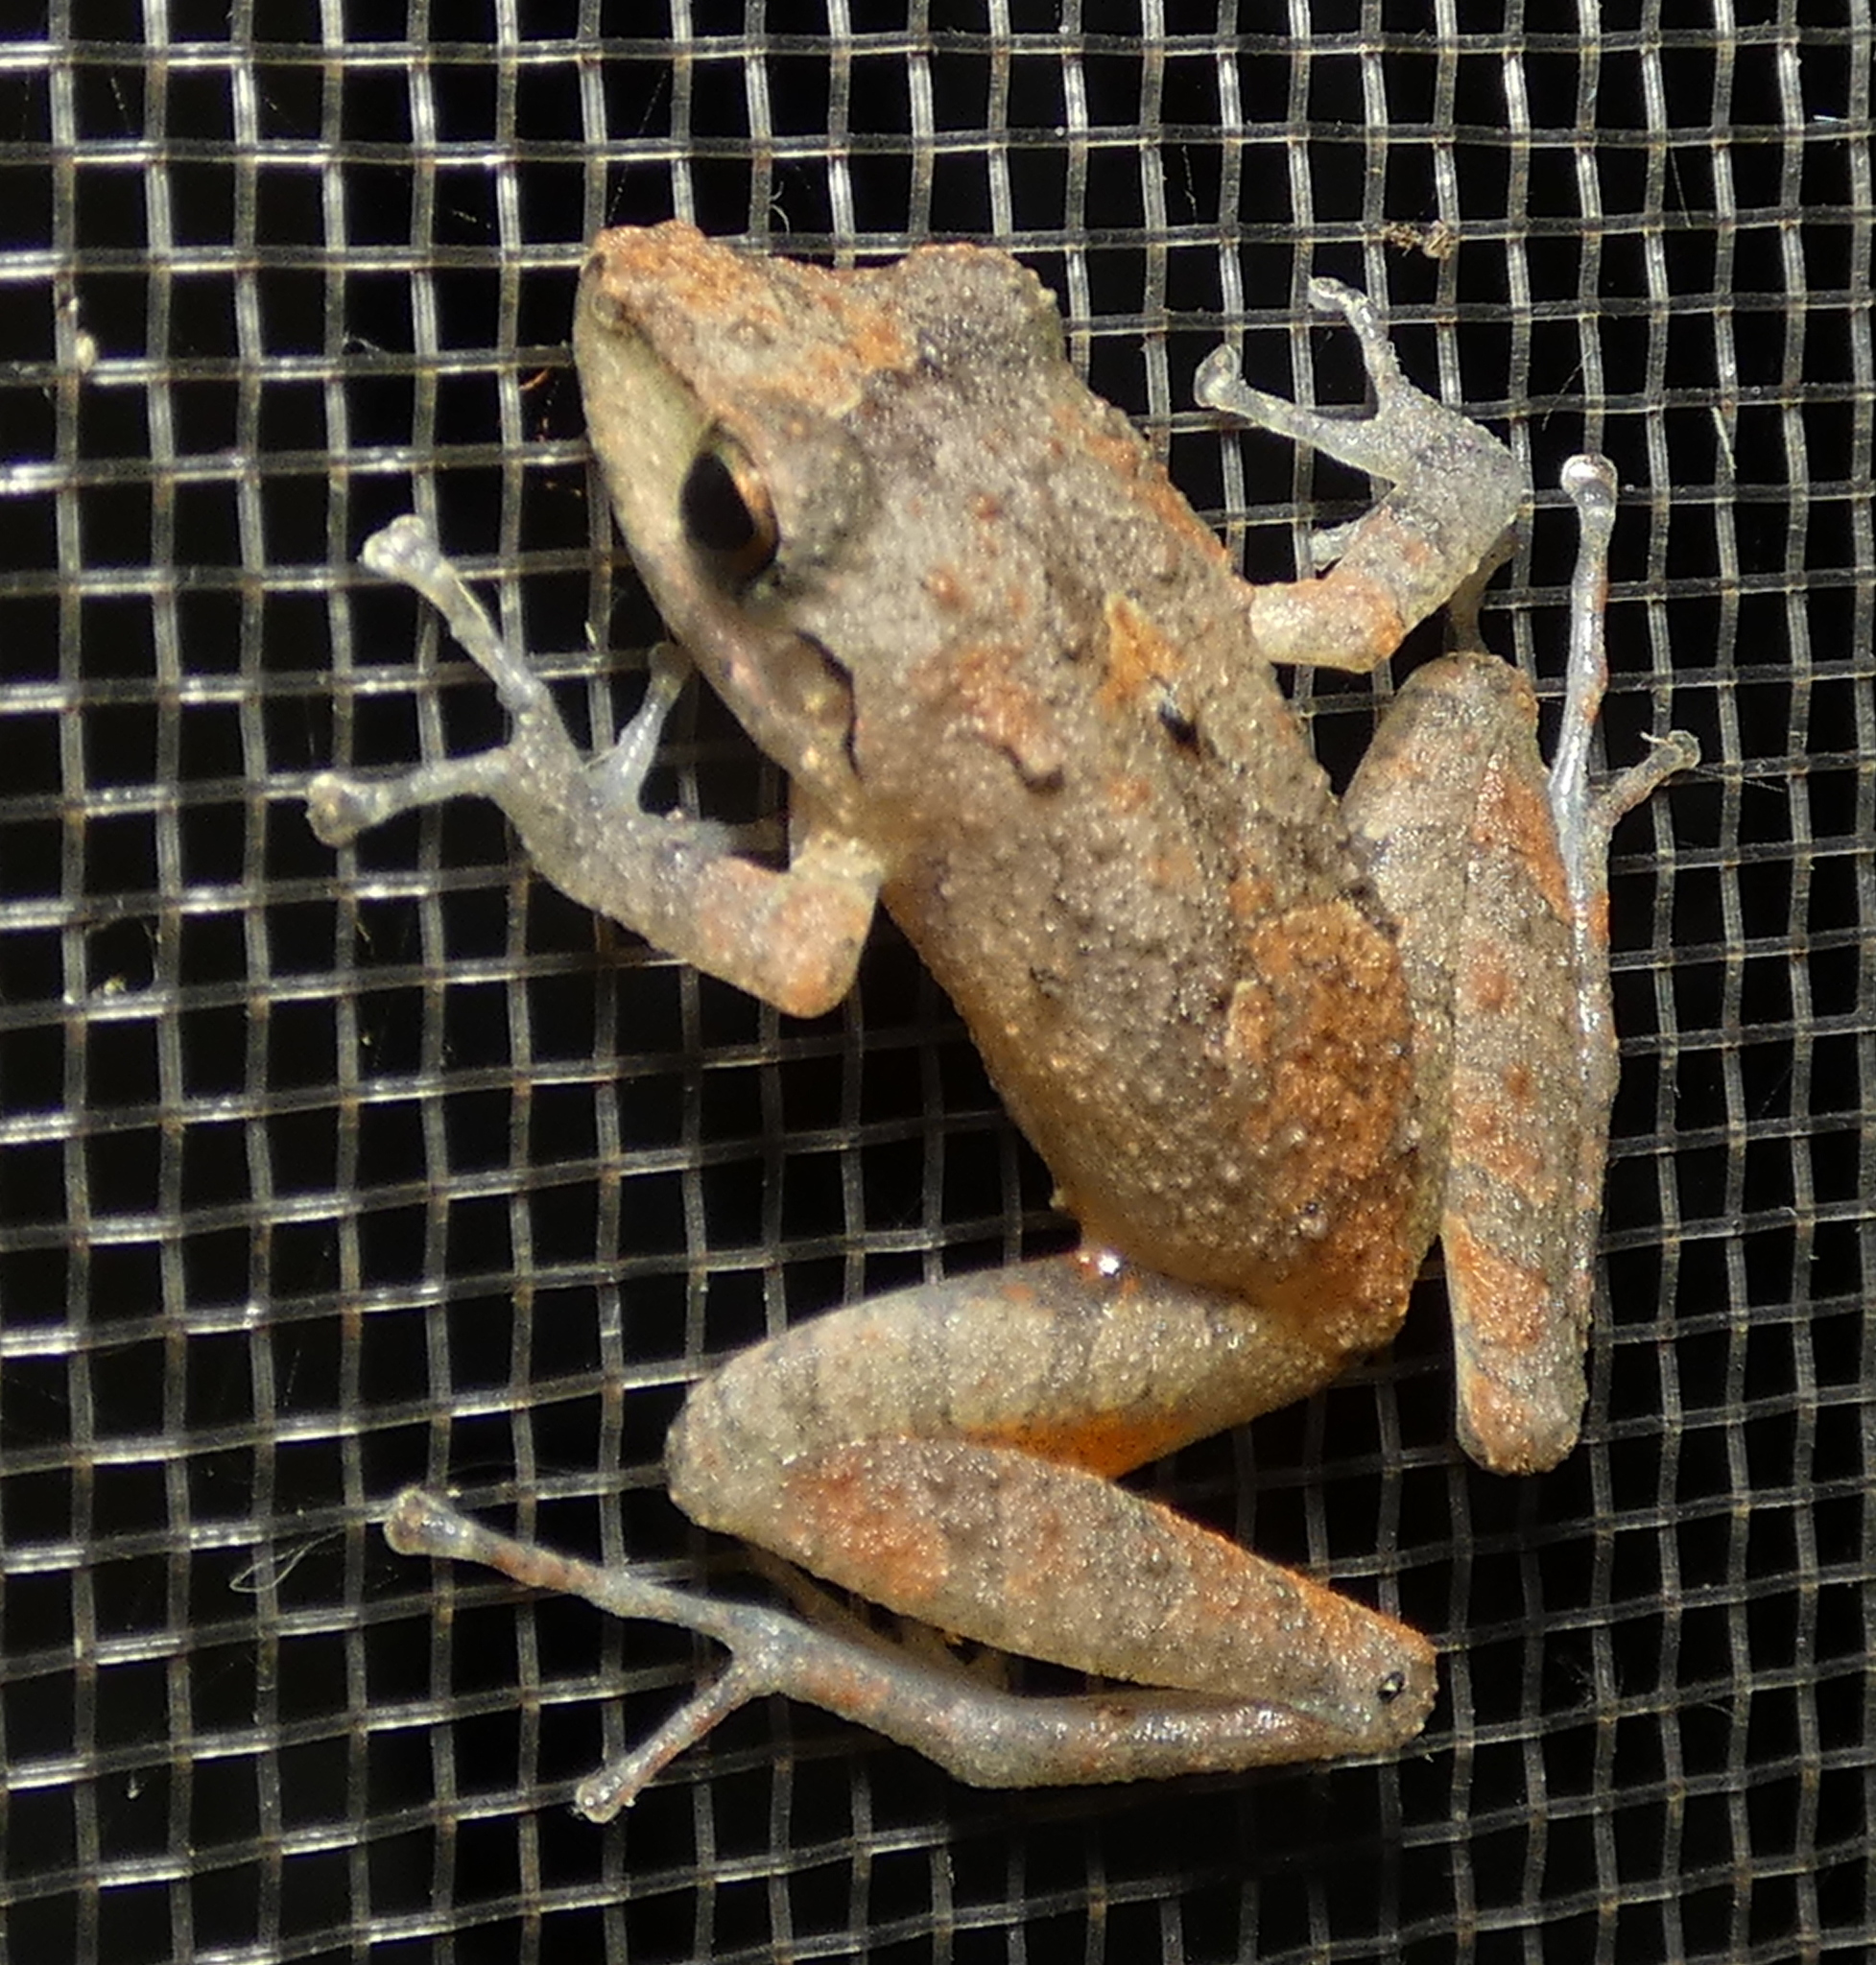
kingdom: Animalia
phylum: Chordata
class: Amphibia
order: Anura
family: Craugastoridae
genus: Pristimantis
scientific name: Pristimantis ramagii
